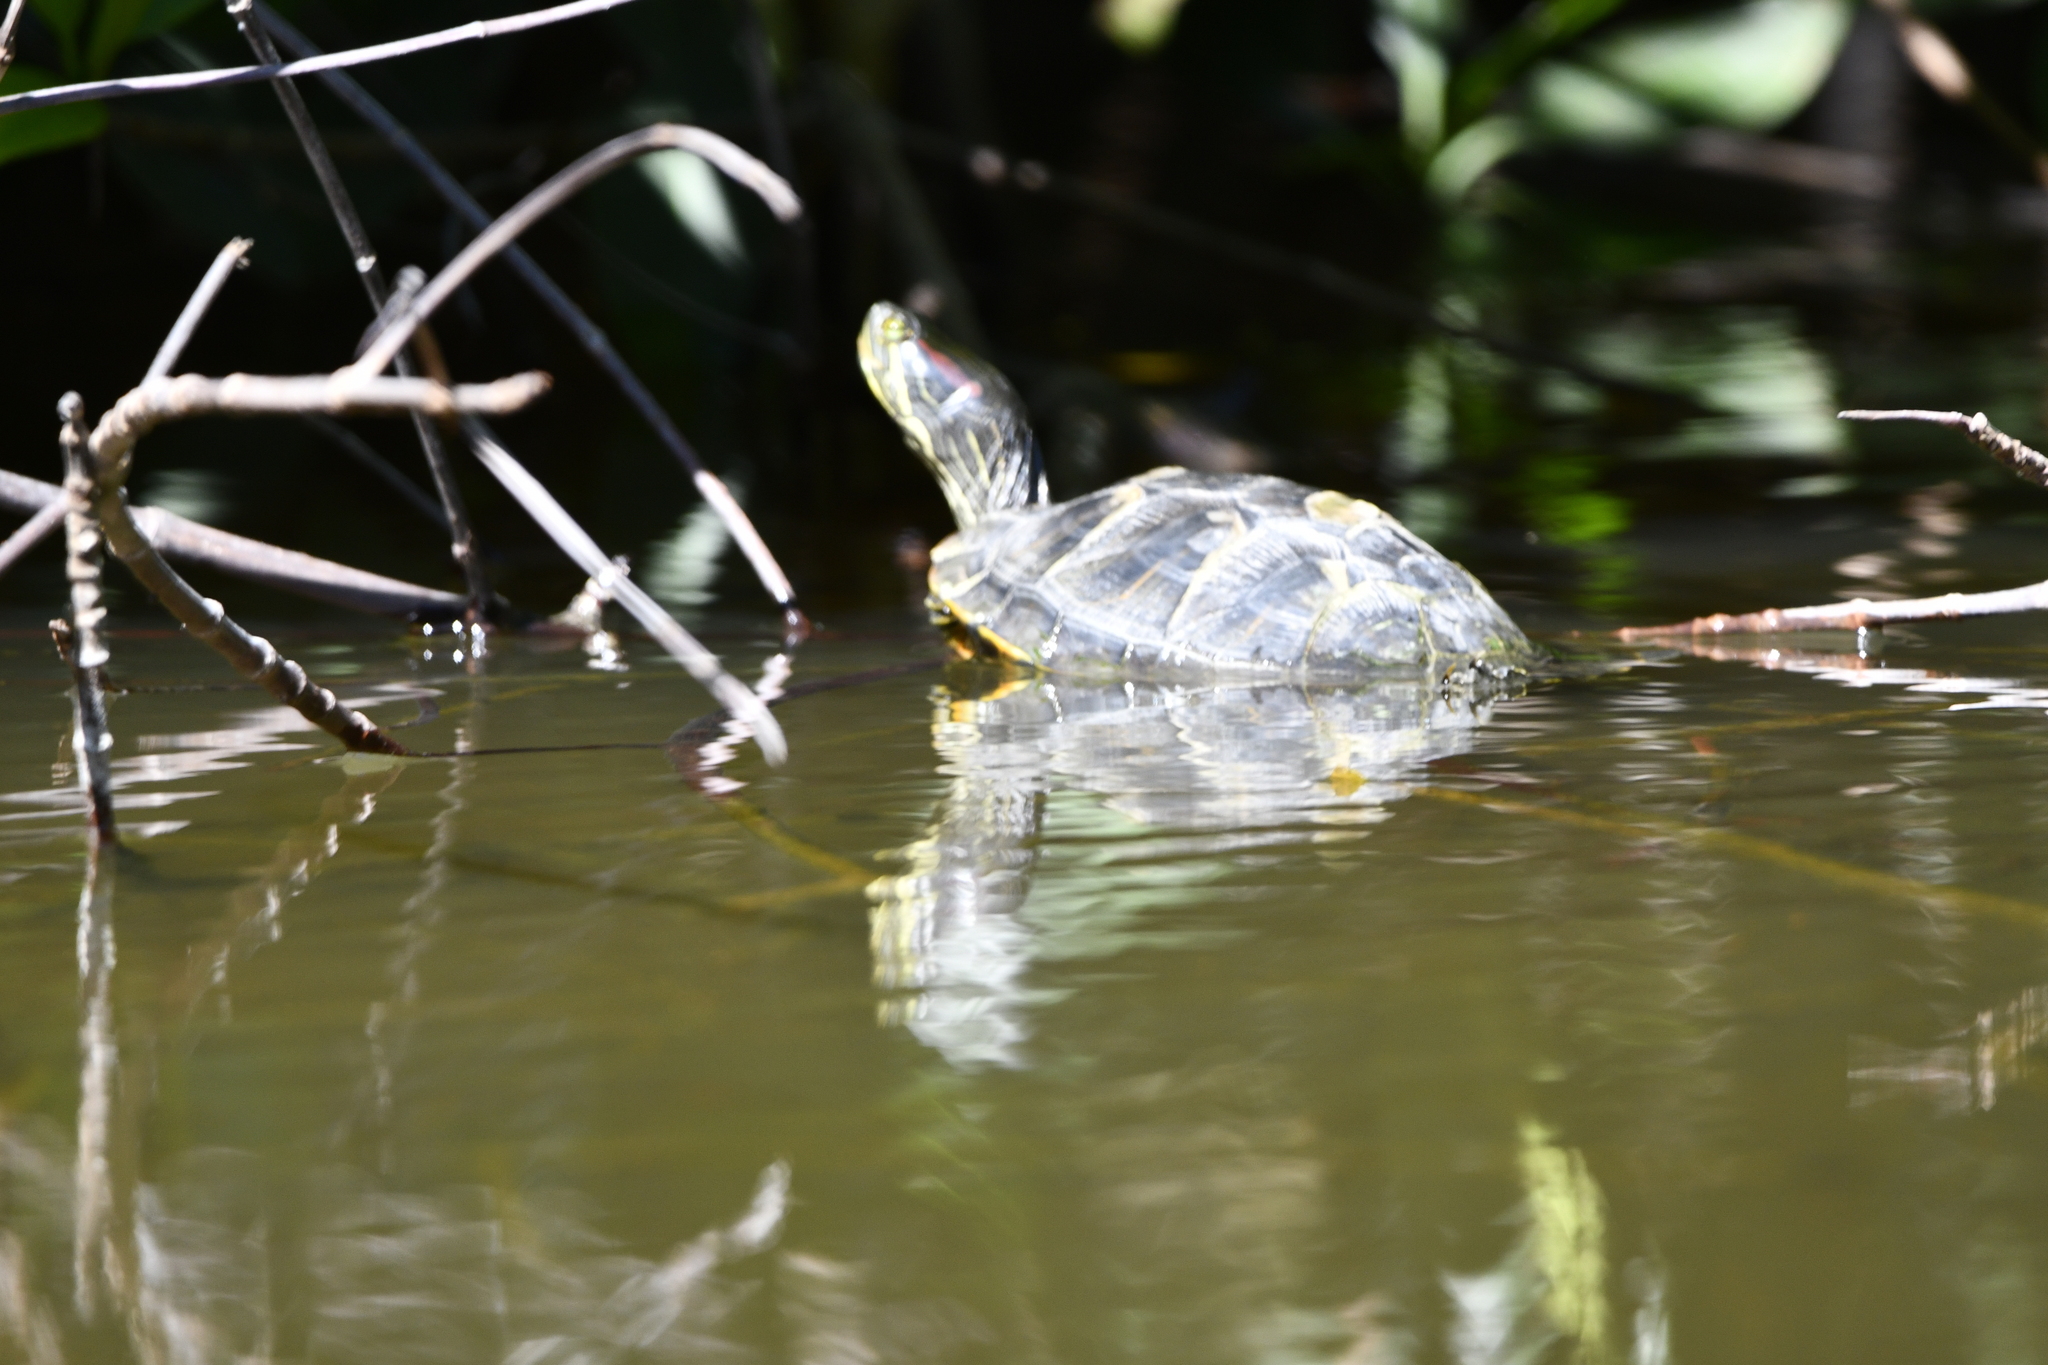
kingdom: Animalia
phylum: Chordata
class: Testudines
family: Emydidae
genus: Trachemys
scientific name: Trachemys scripta
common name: Slider
